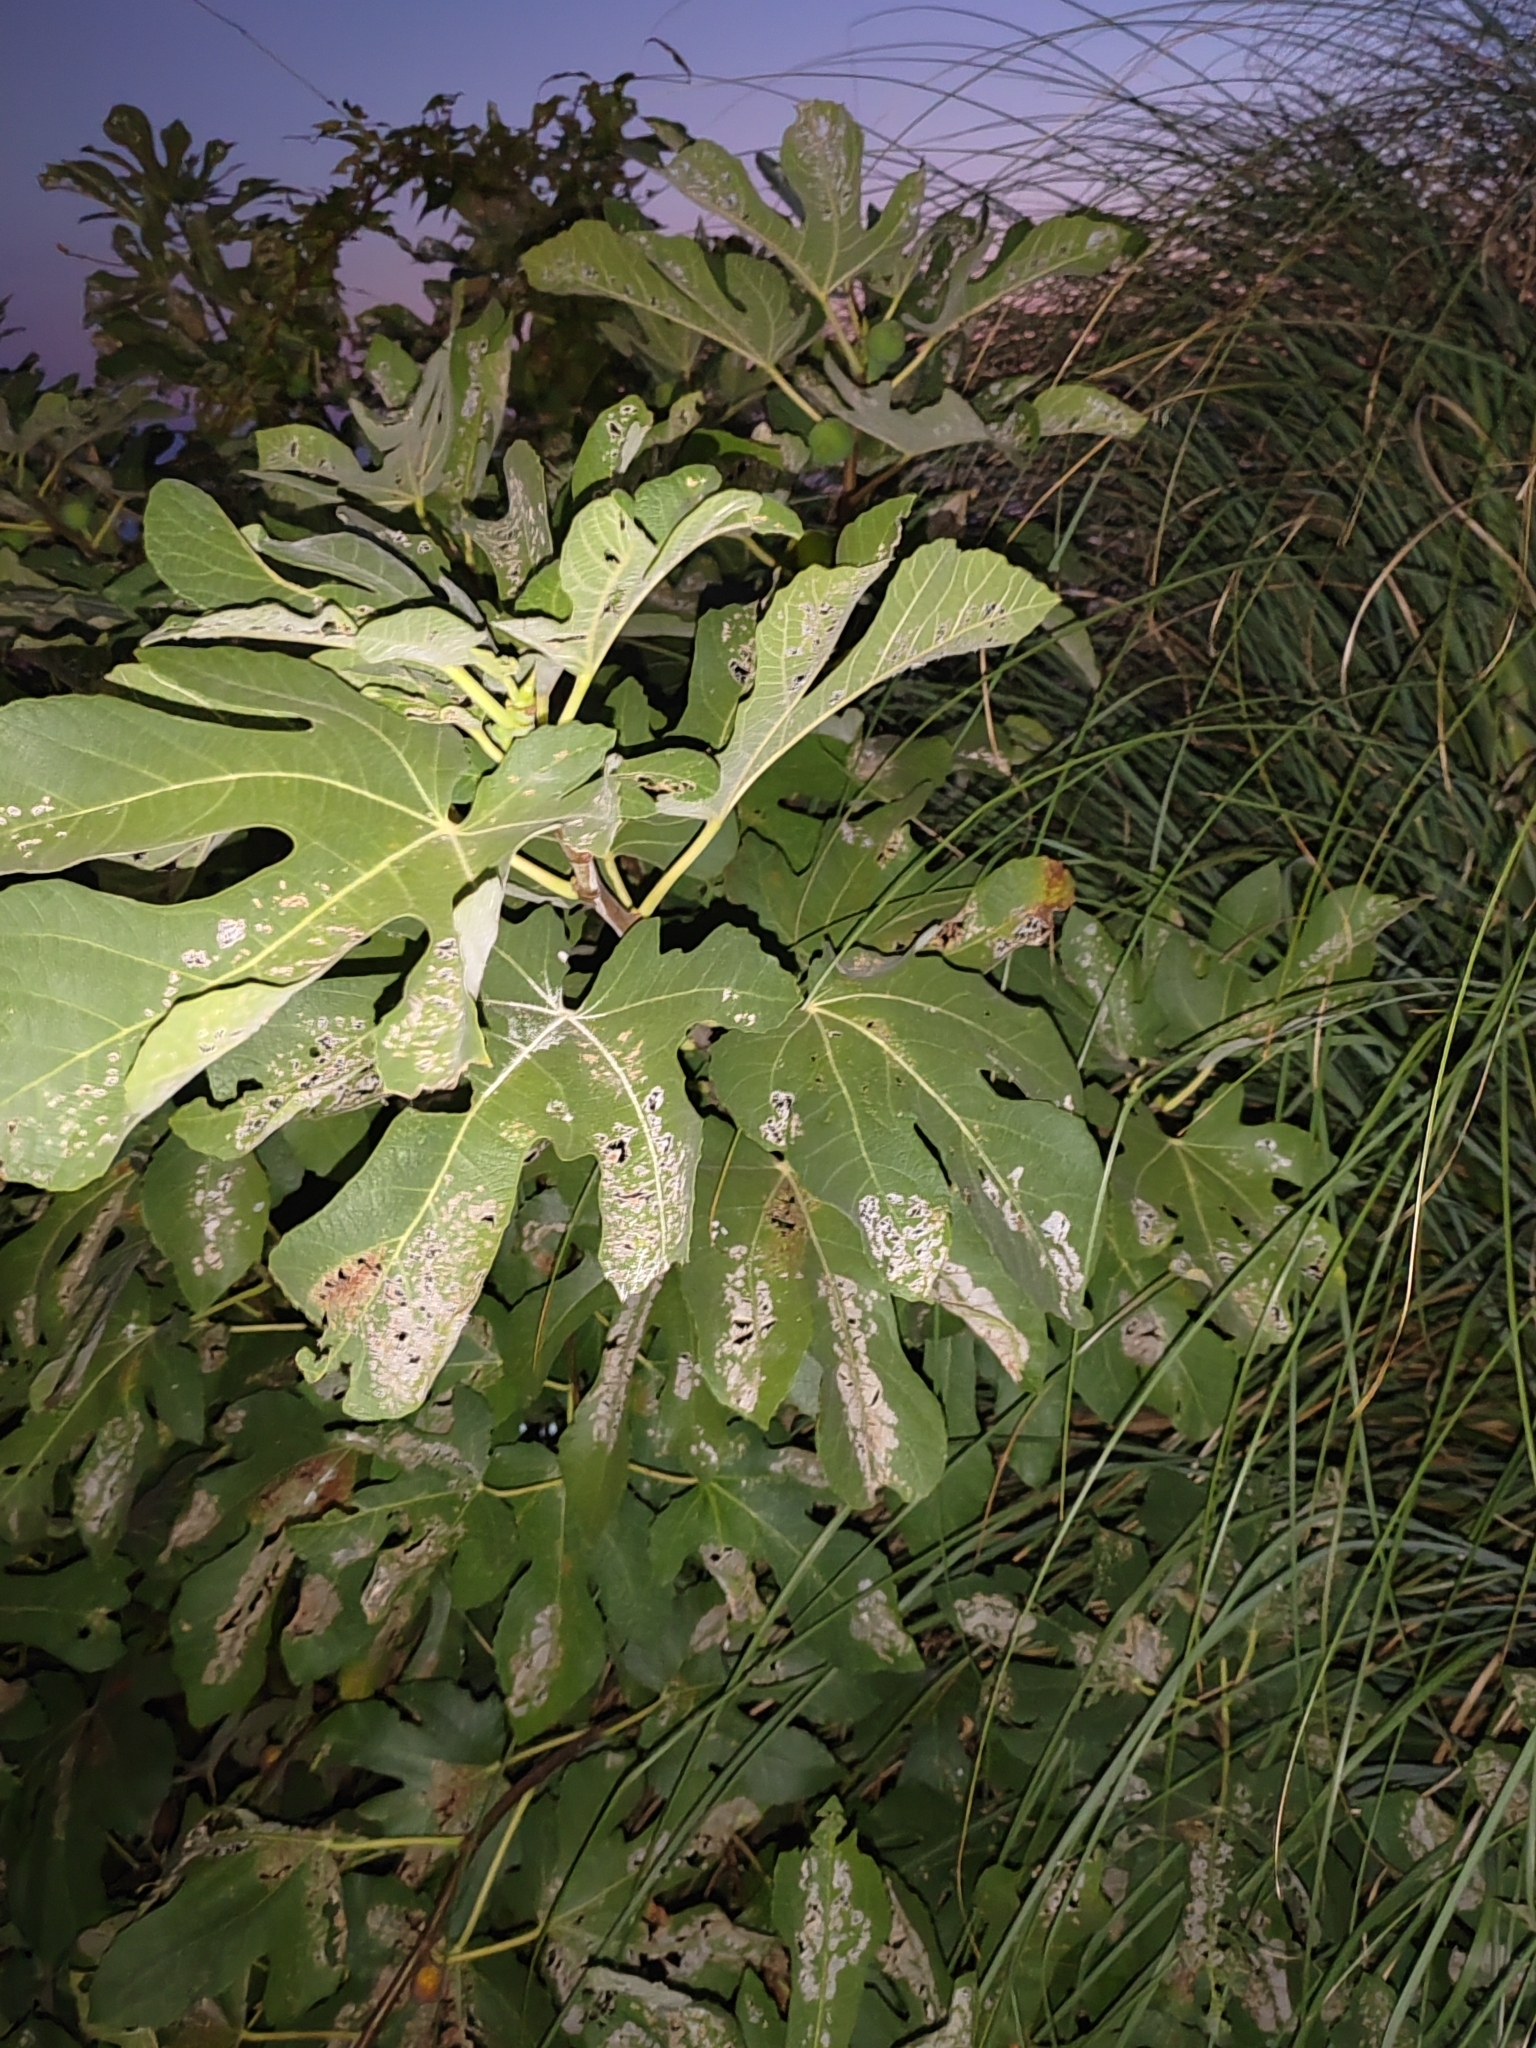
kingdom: Plantae
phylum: Tracheophyta
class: Magnoliopsida
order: Rosales
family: Moraceae
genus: Ficus
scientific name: Ficus carica
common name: Fig
